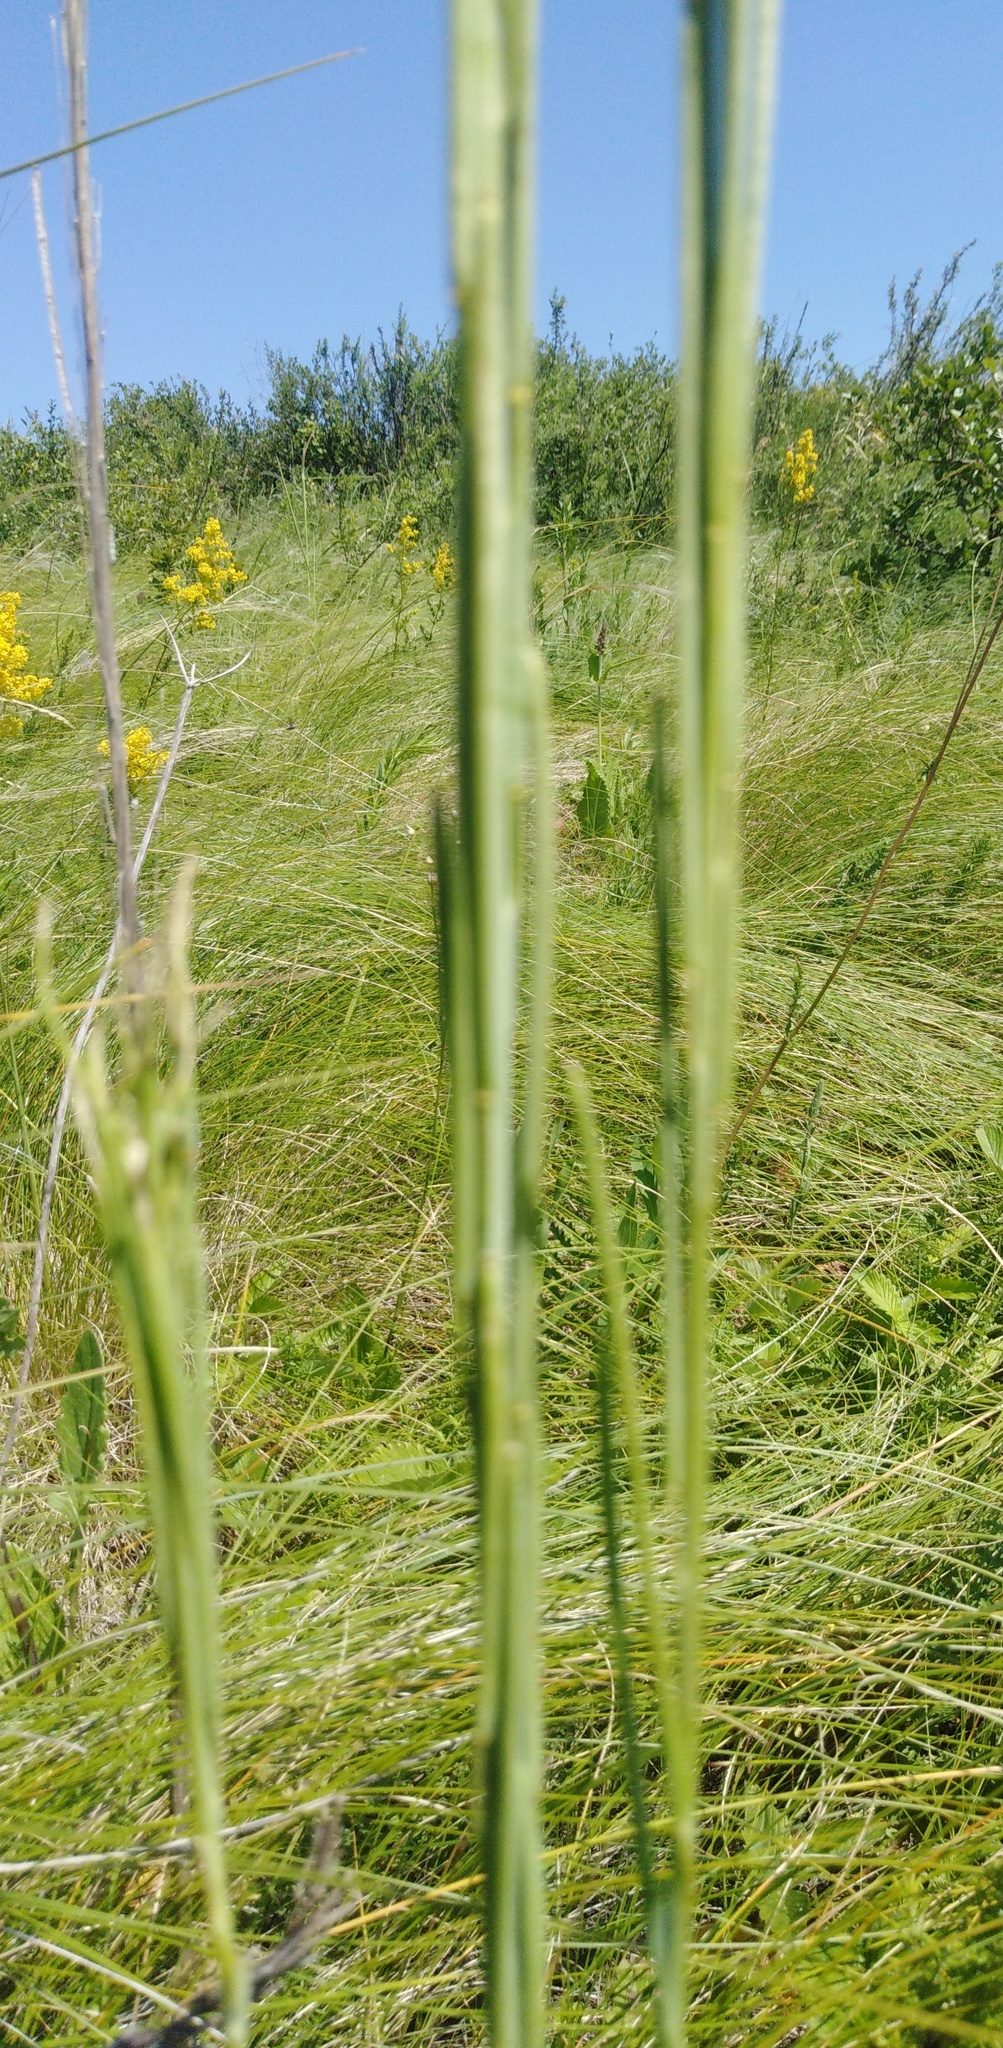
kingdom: Plantae
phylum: Tracheophyta
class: Magnoliopsida
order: Brassicales
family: Brassicaceae
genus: Turritis
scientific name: Turritis glabra
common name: Tower rockcress
